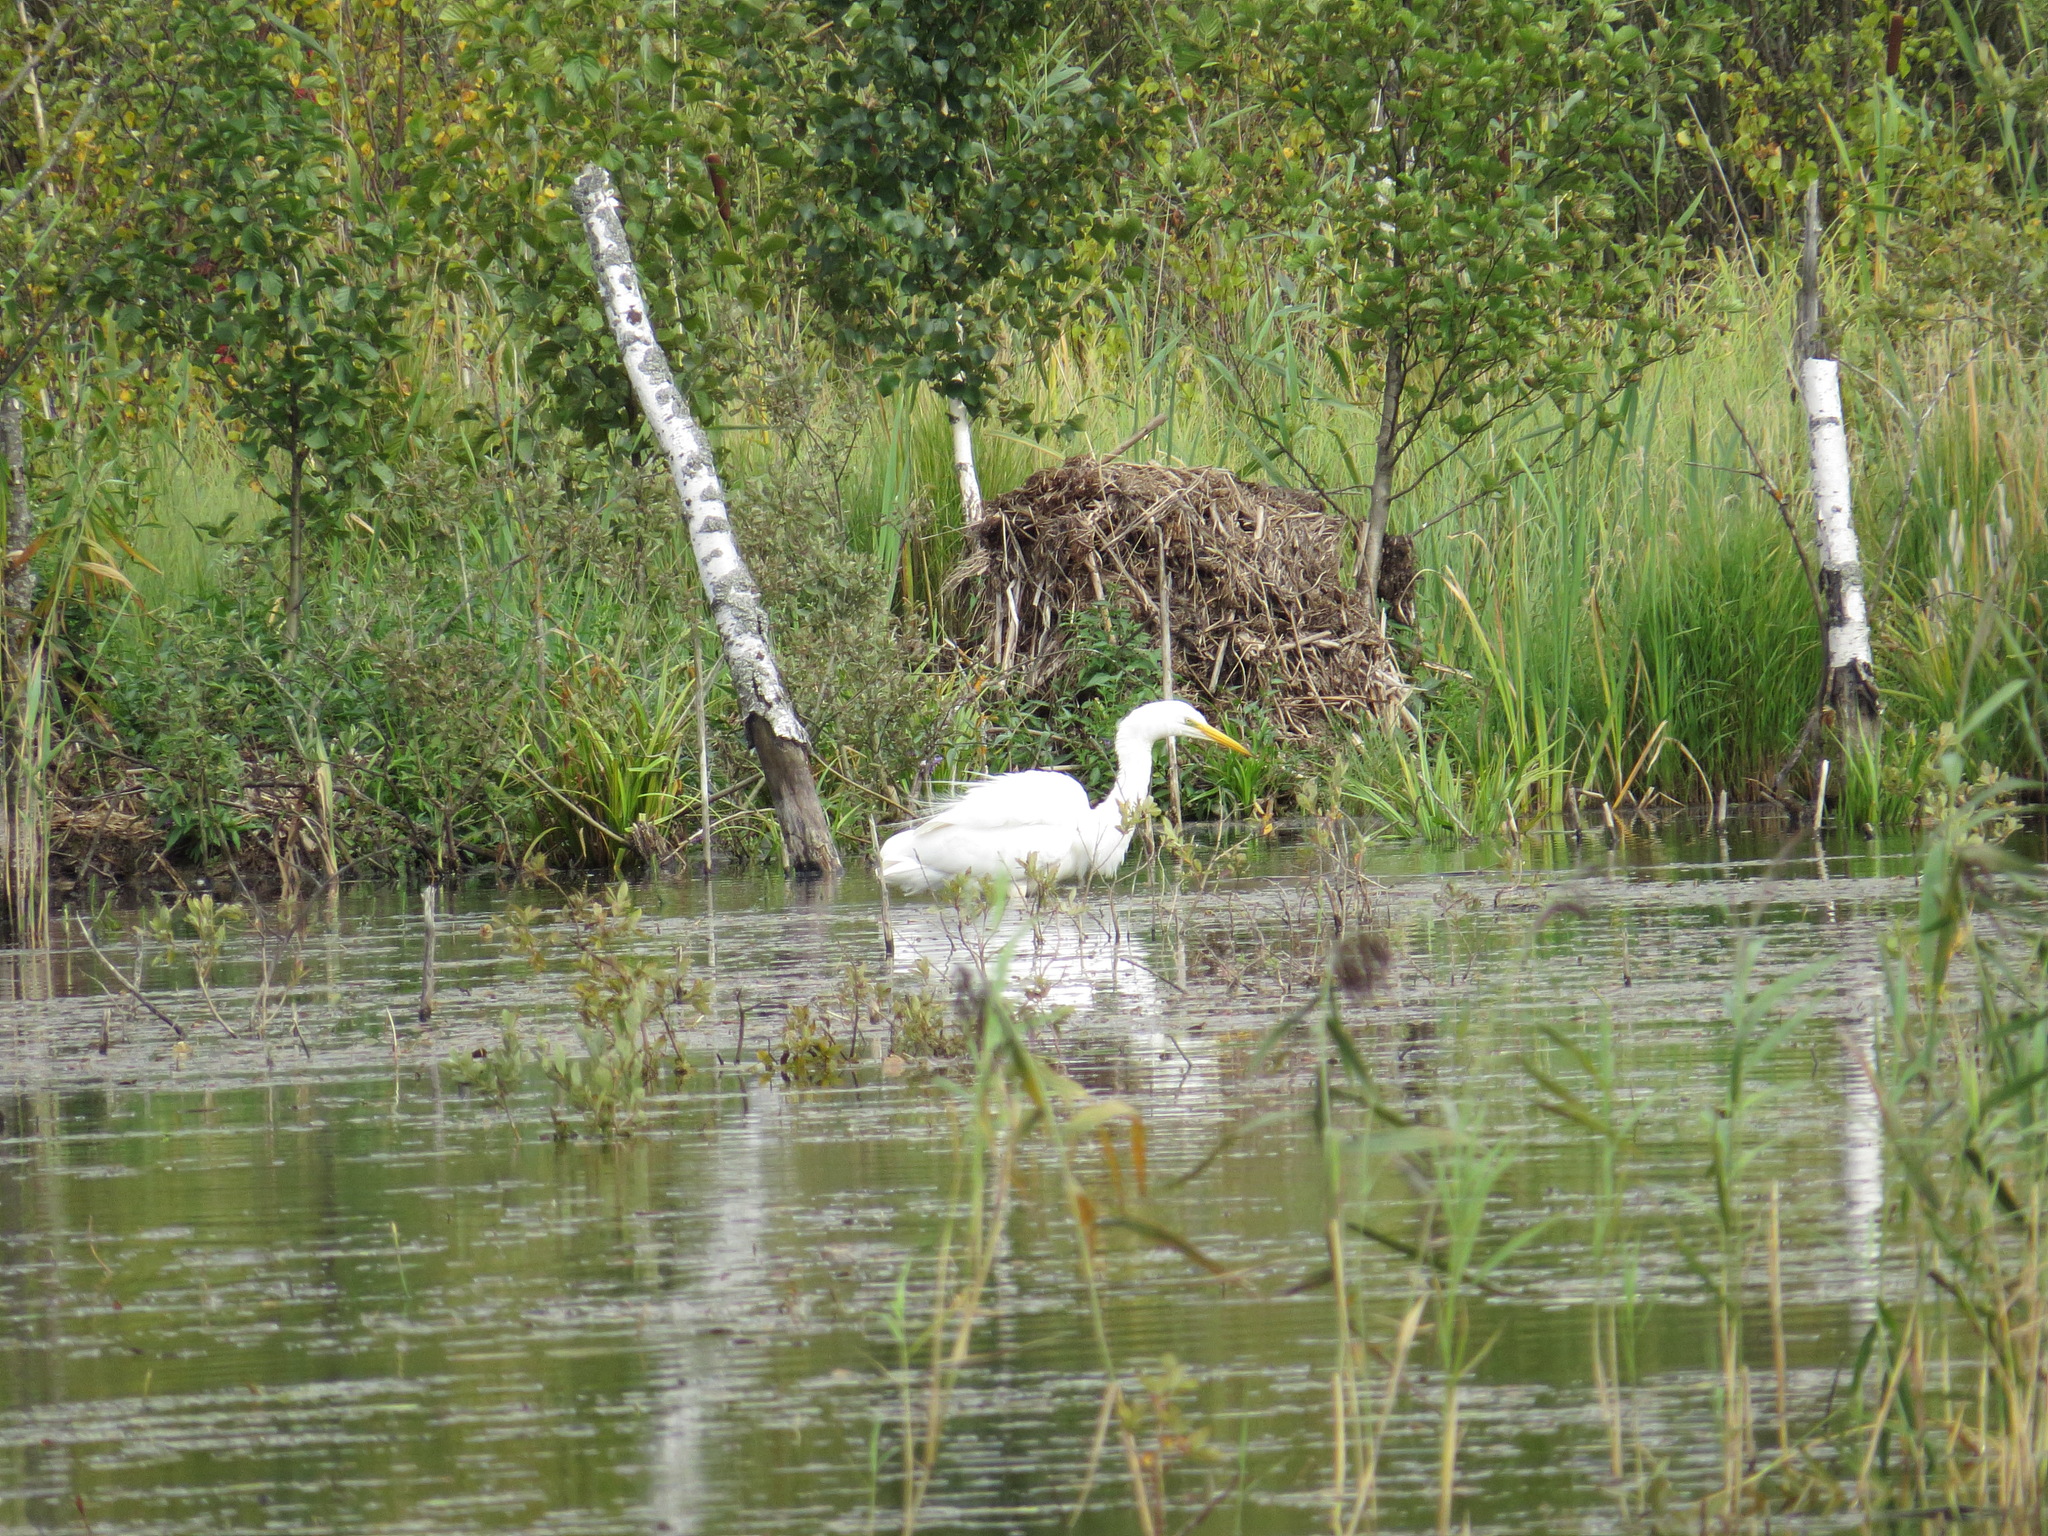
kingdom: Animalia
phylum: Chordata
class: Aves
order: Pelecaniformes
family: Ardeidae
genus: Ardea
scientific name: Ardea alba
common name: Great egret
